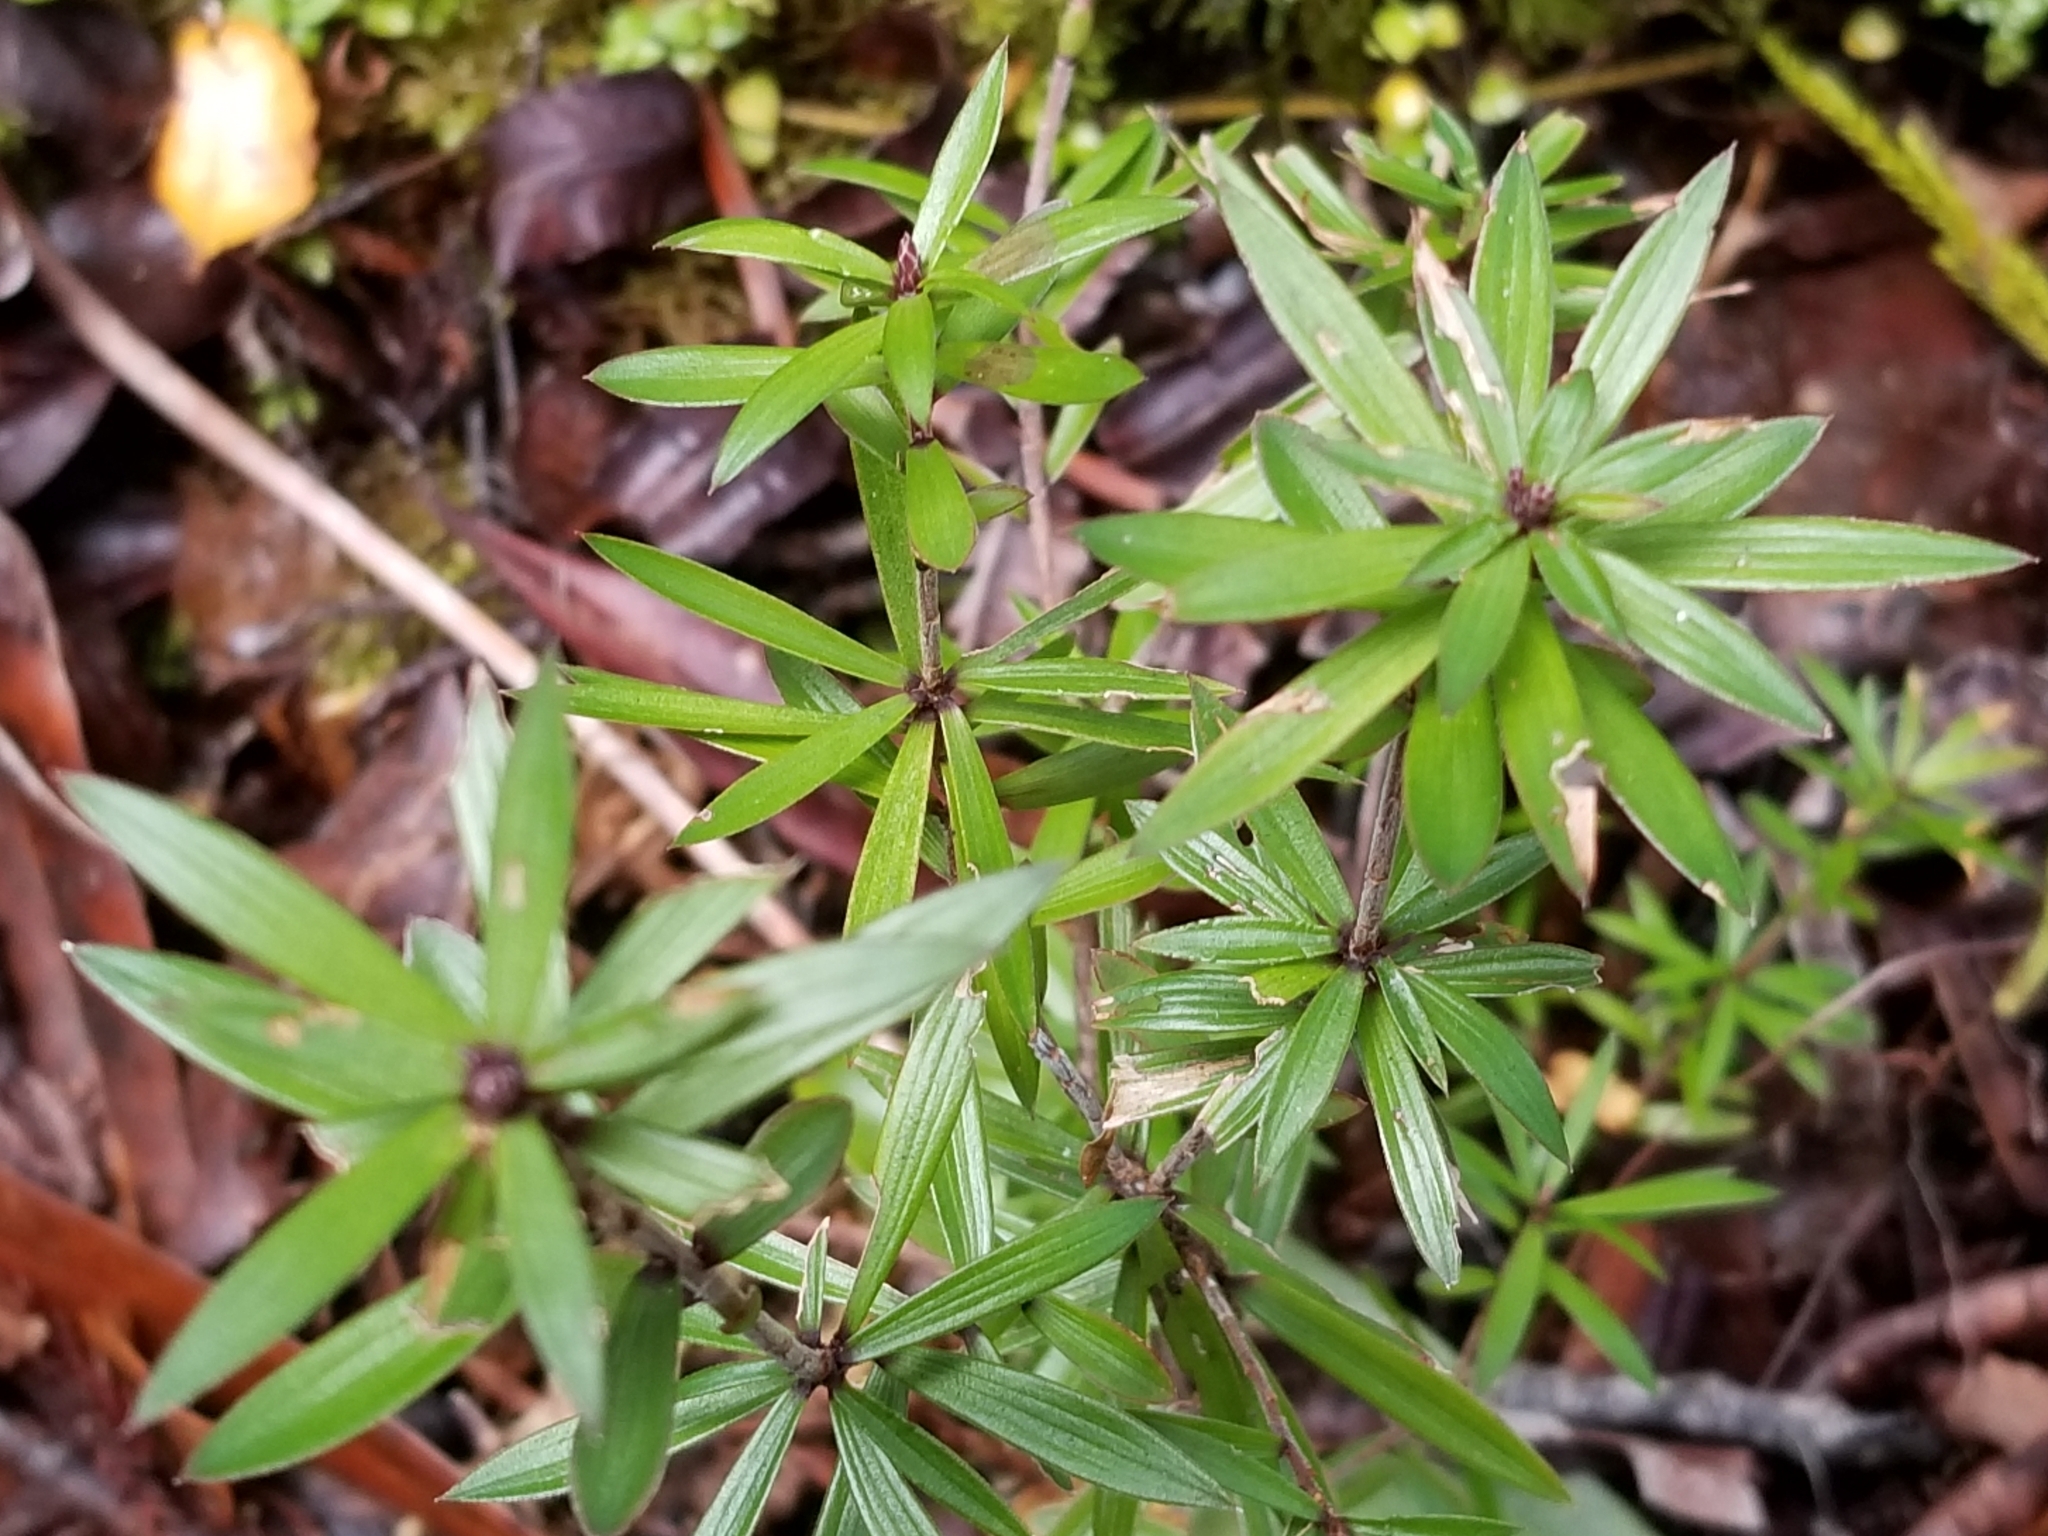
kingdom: Plantae
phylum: Tracheophyta
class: Magnoliopsida
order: Ericales
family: Ericaceae
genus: Leucopogon
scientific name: Leucopogon fasciculatus
